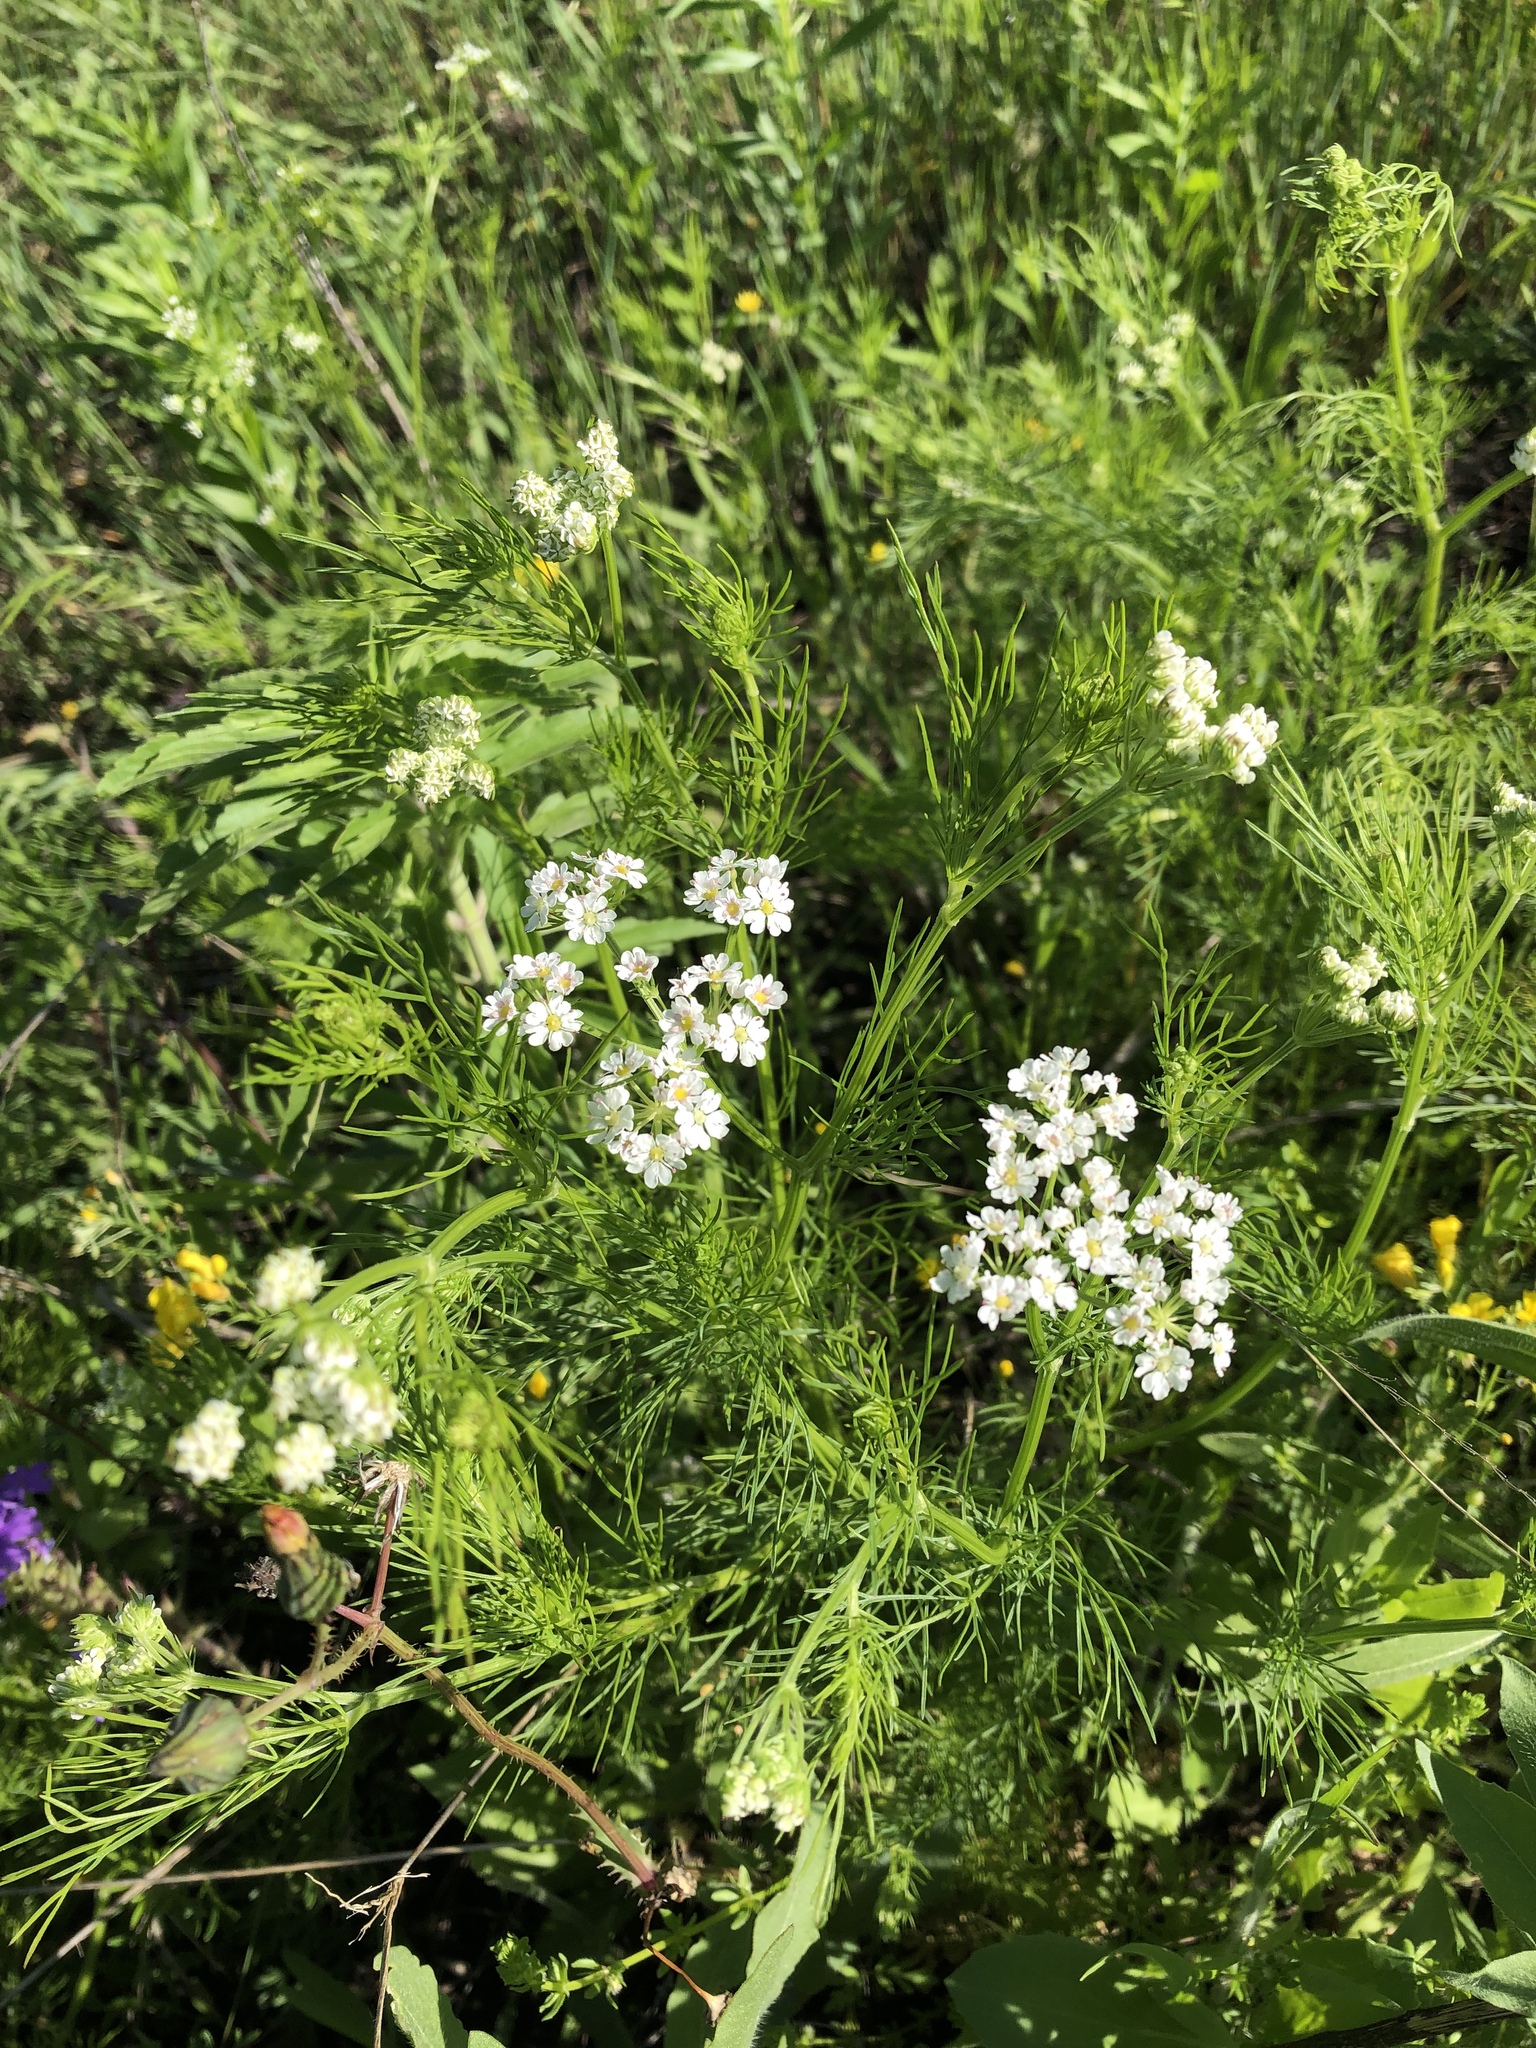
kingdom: Plantae
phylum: Tracheophyta
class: Magnoliopsida
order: Apiales
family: Apiaceae
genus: Atrema
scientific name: Atrema americanum
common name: Prairie-bishop
